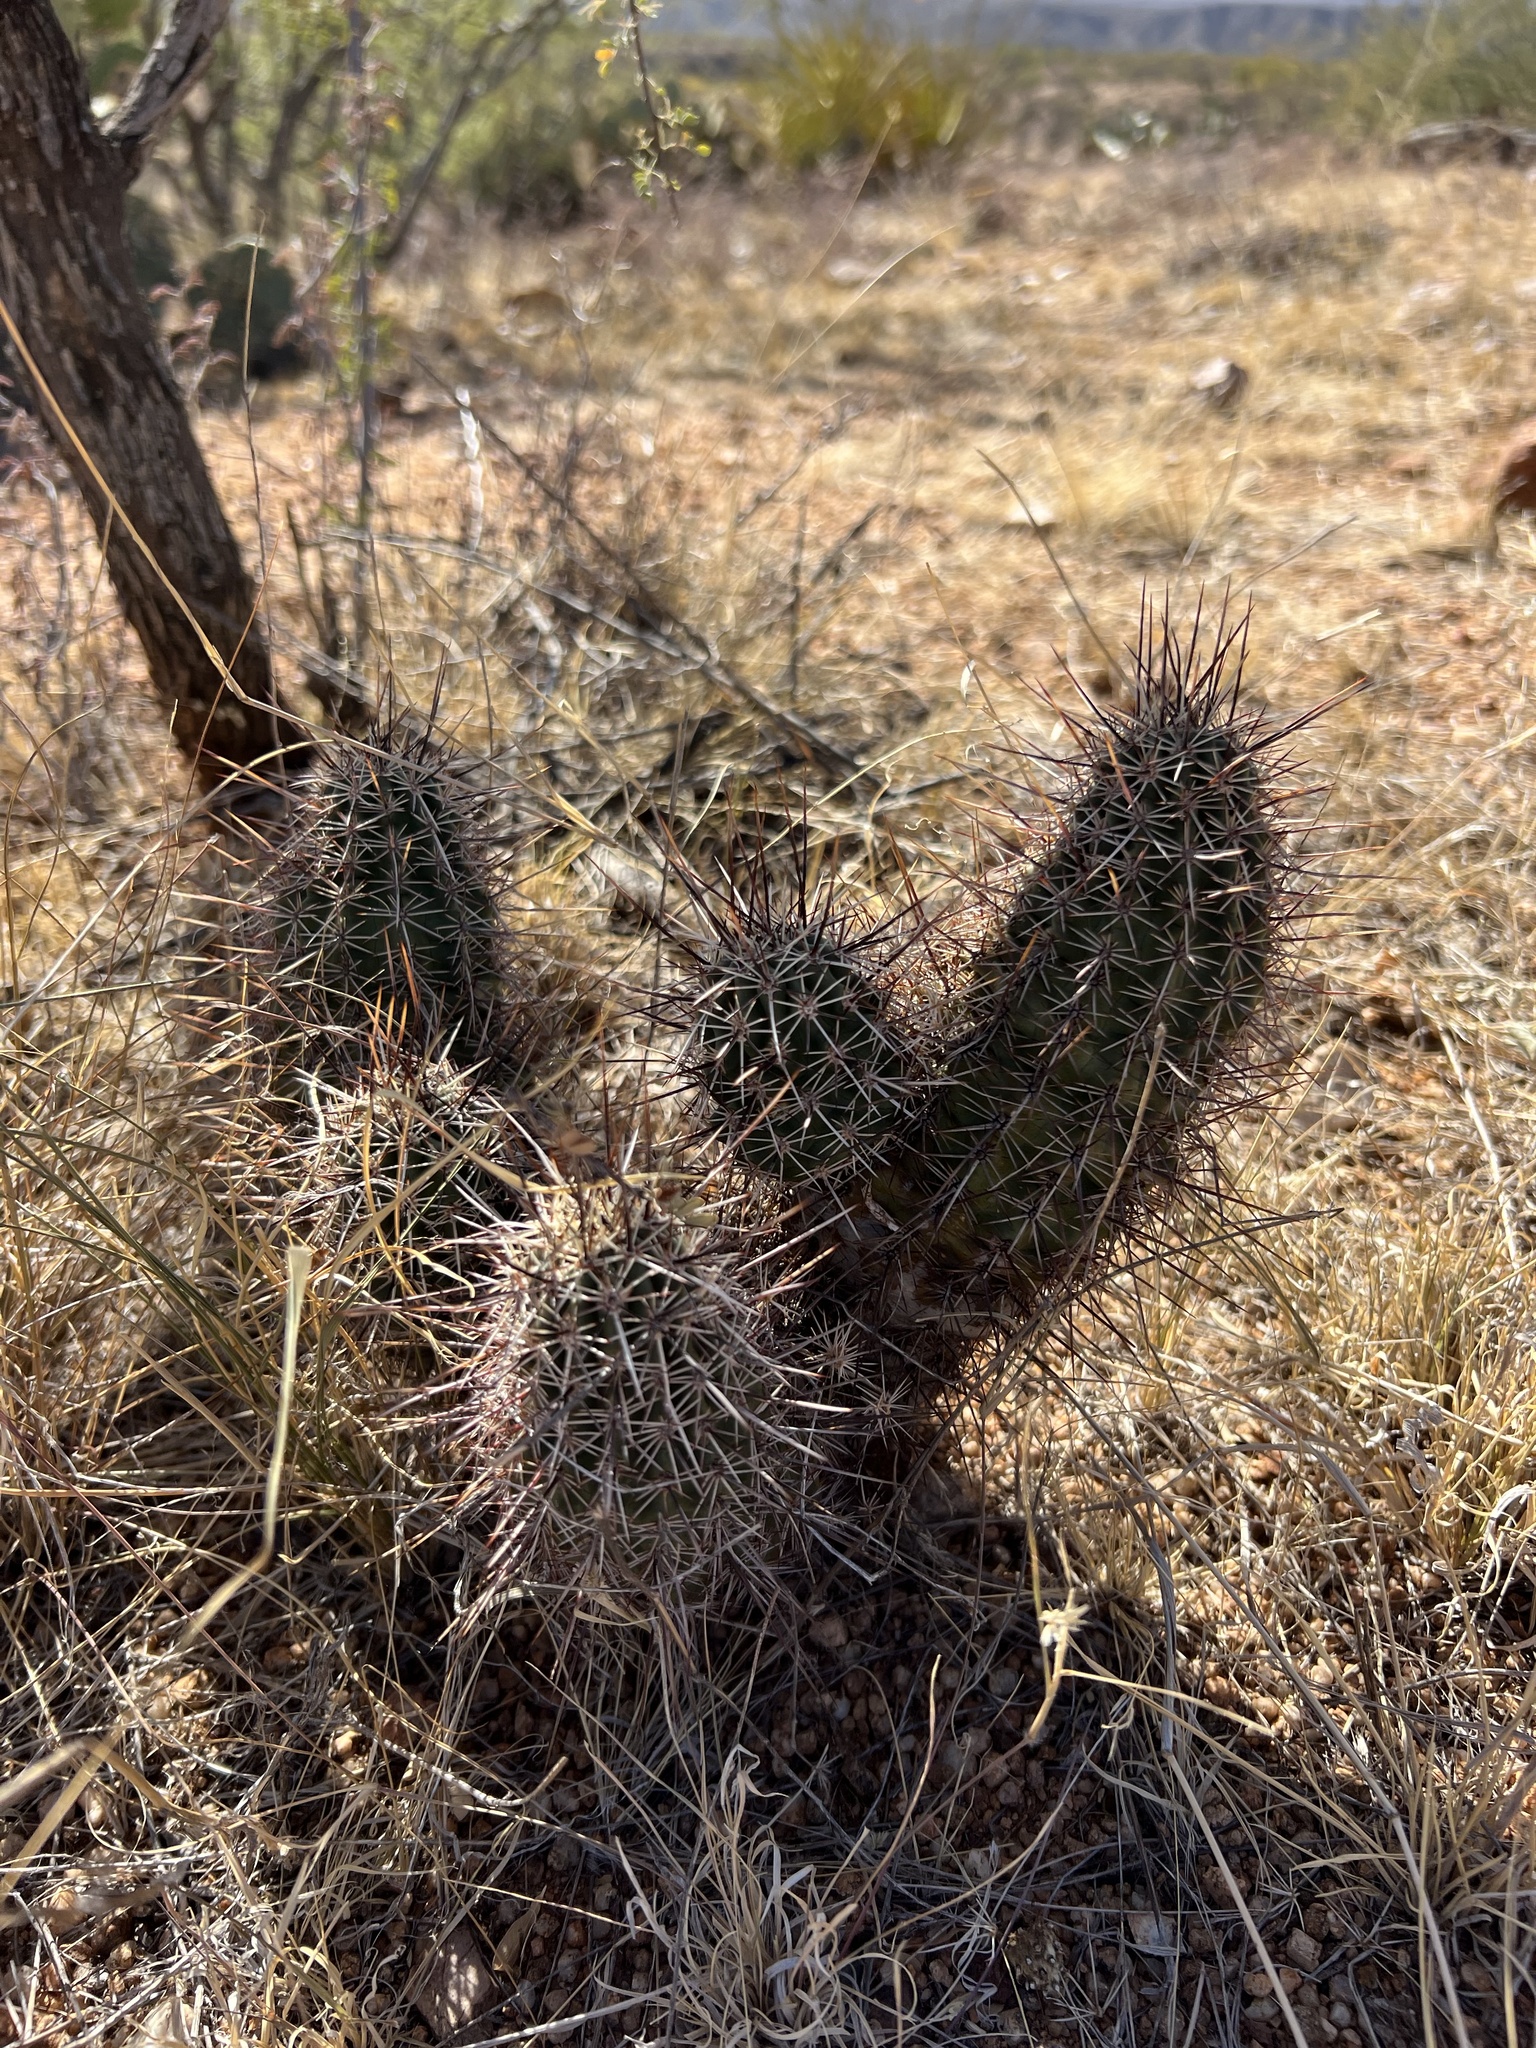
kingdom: Plantae
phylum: Tracheophyta
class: Magnoliopsida
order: Caryophyllales
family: Cactaceae
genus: Echinocereus
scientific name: Echinocereus fasciculatus
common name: Bundle hedgehog
